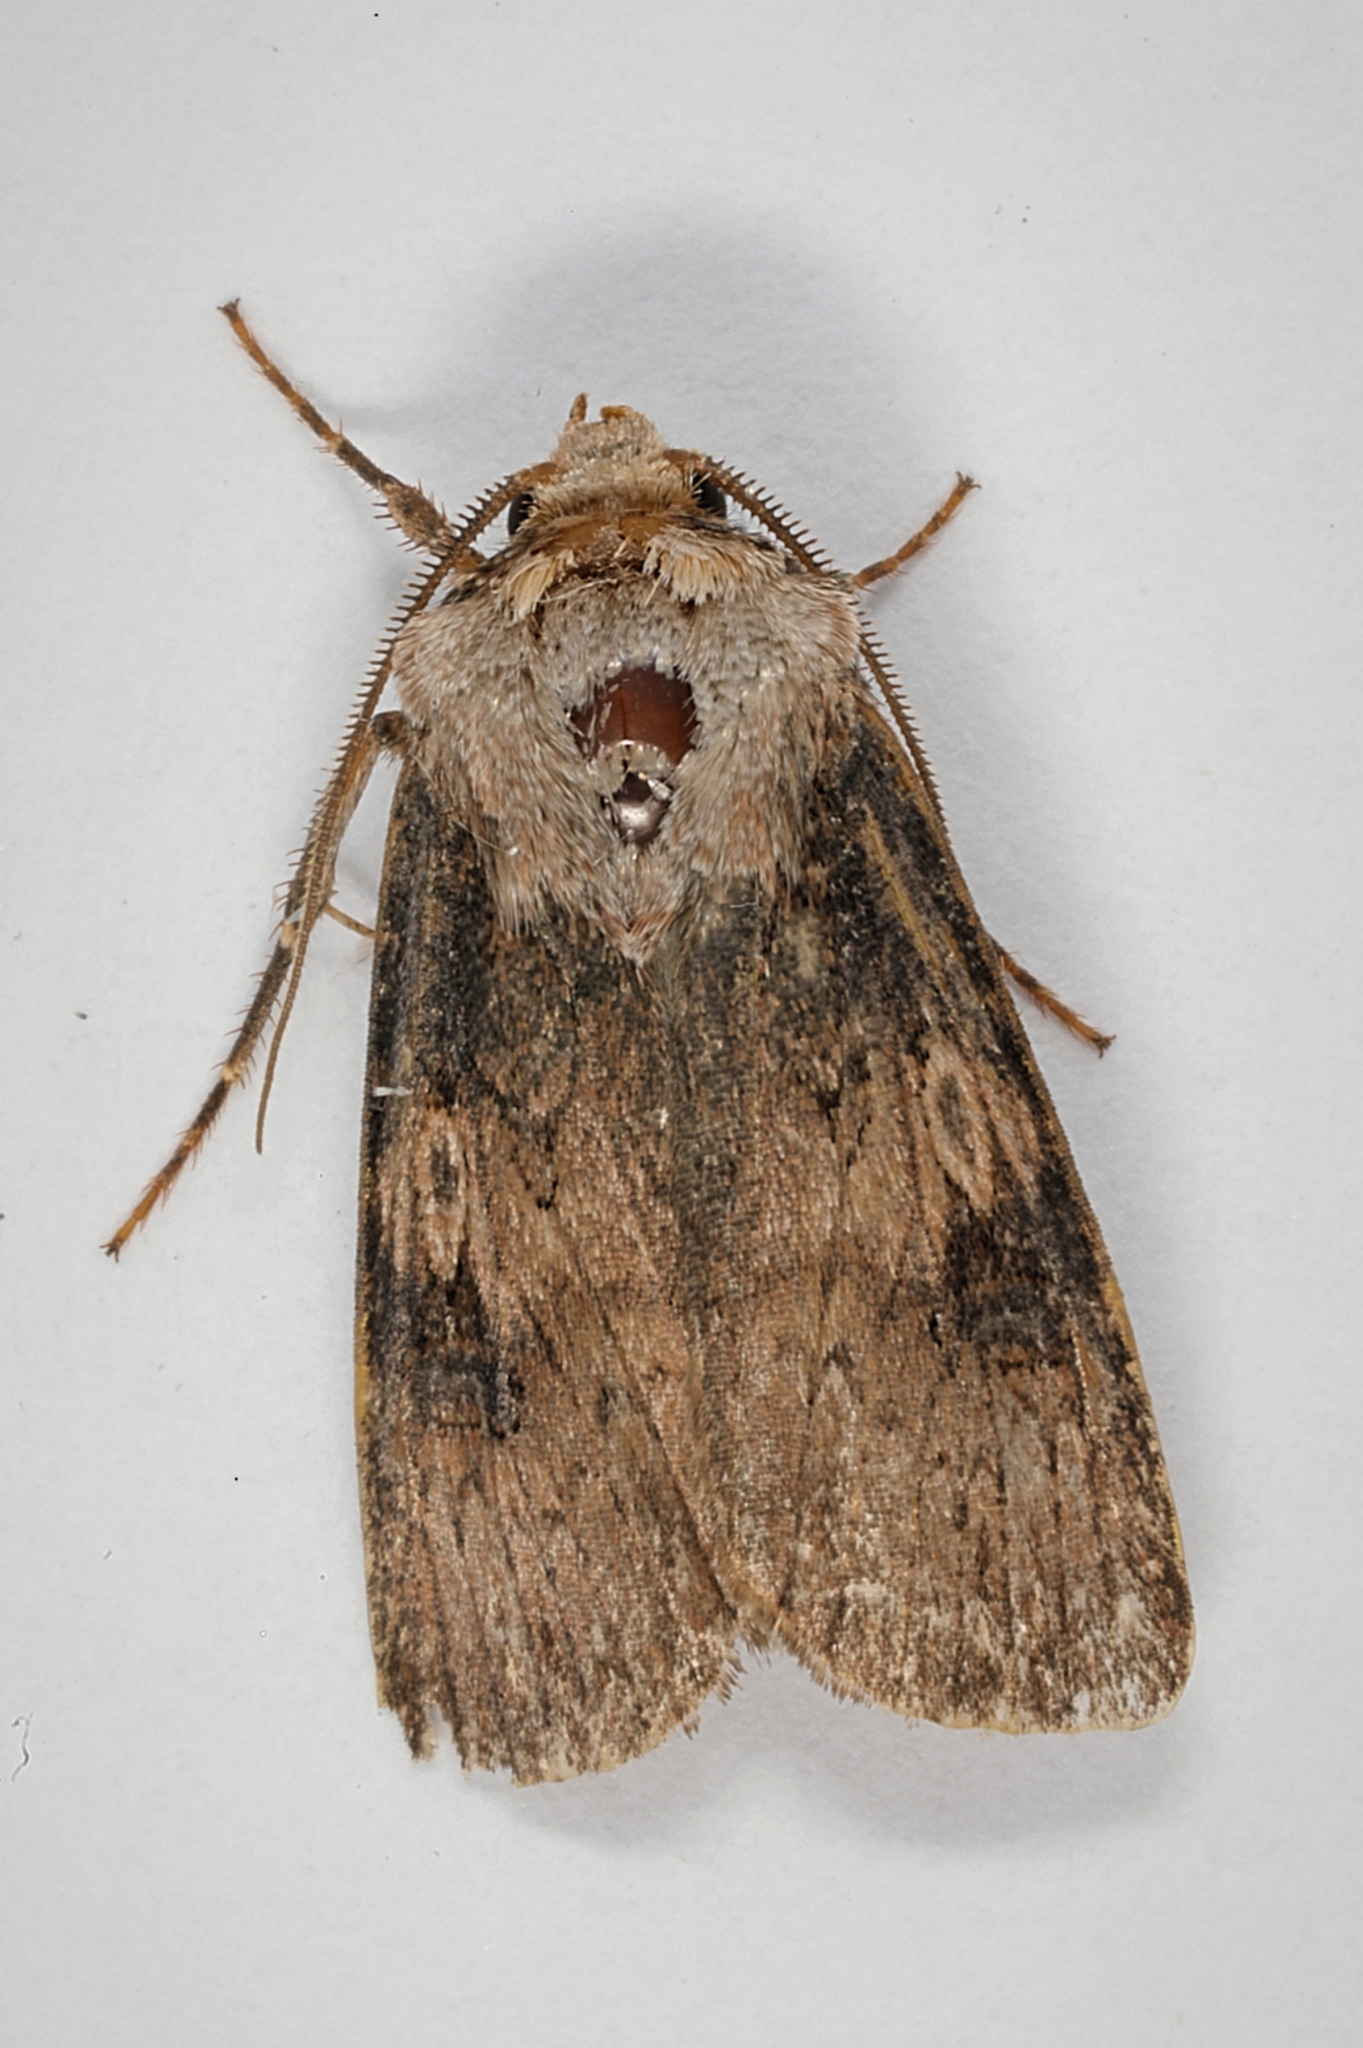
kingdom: Animalia
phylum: Arthropoda
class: Insecta
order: Lepidoptera
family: Noctuidae
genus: Agrotis
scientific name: Agrotis puta
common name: Shuttle-shaped dart
